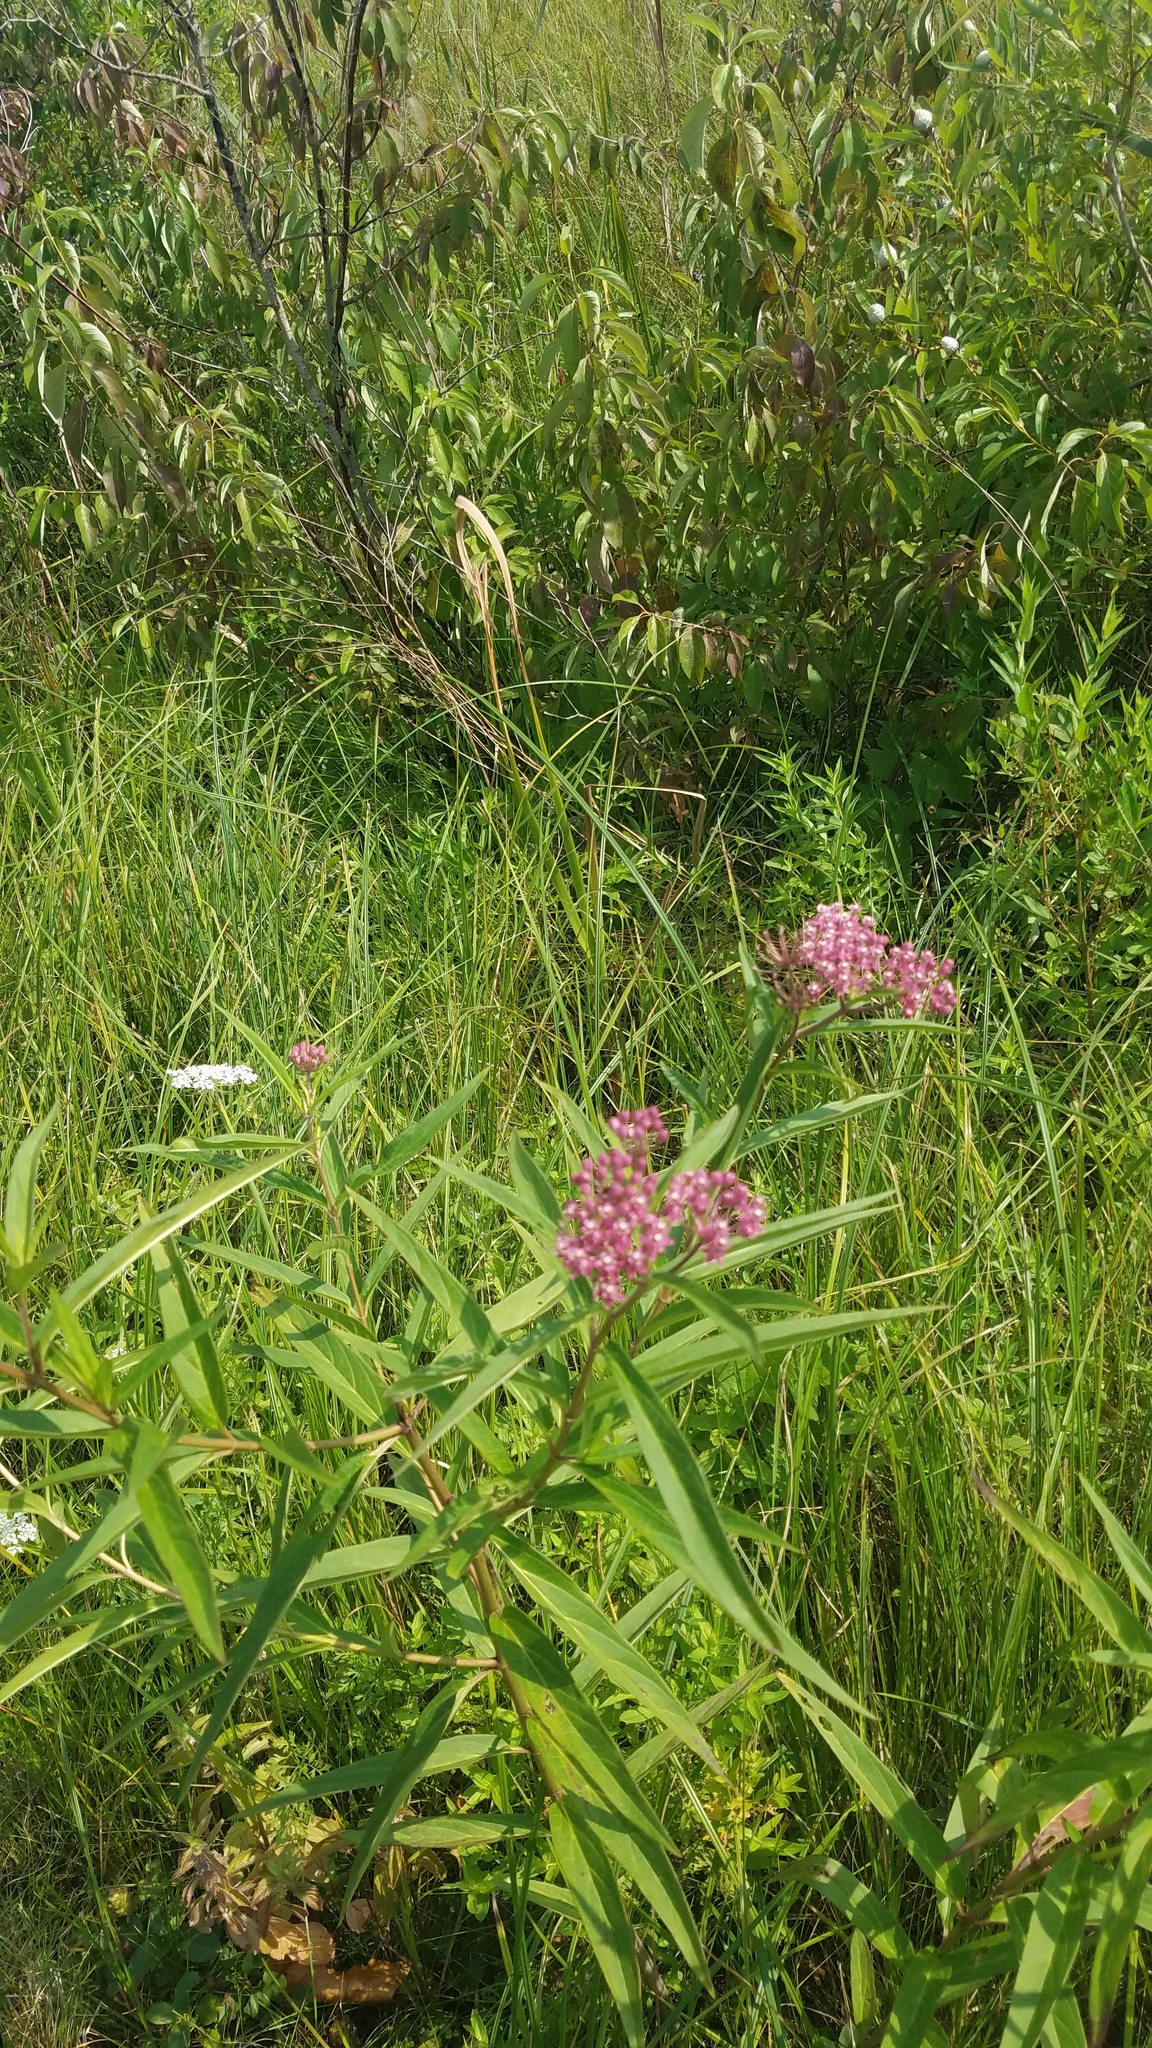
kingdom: Plantae
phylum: Tracheophyta
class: Magnoliopsida
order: Gentianales
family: Apocynaceae
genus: Asclepias
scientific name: Asclepias incarnata
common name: Swamp milkweed
